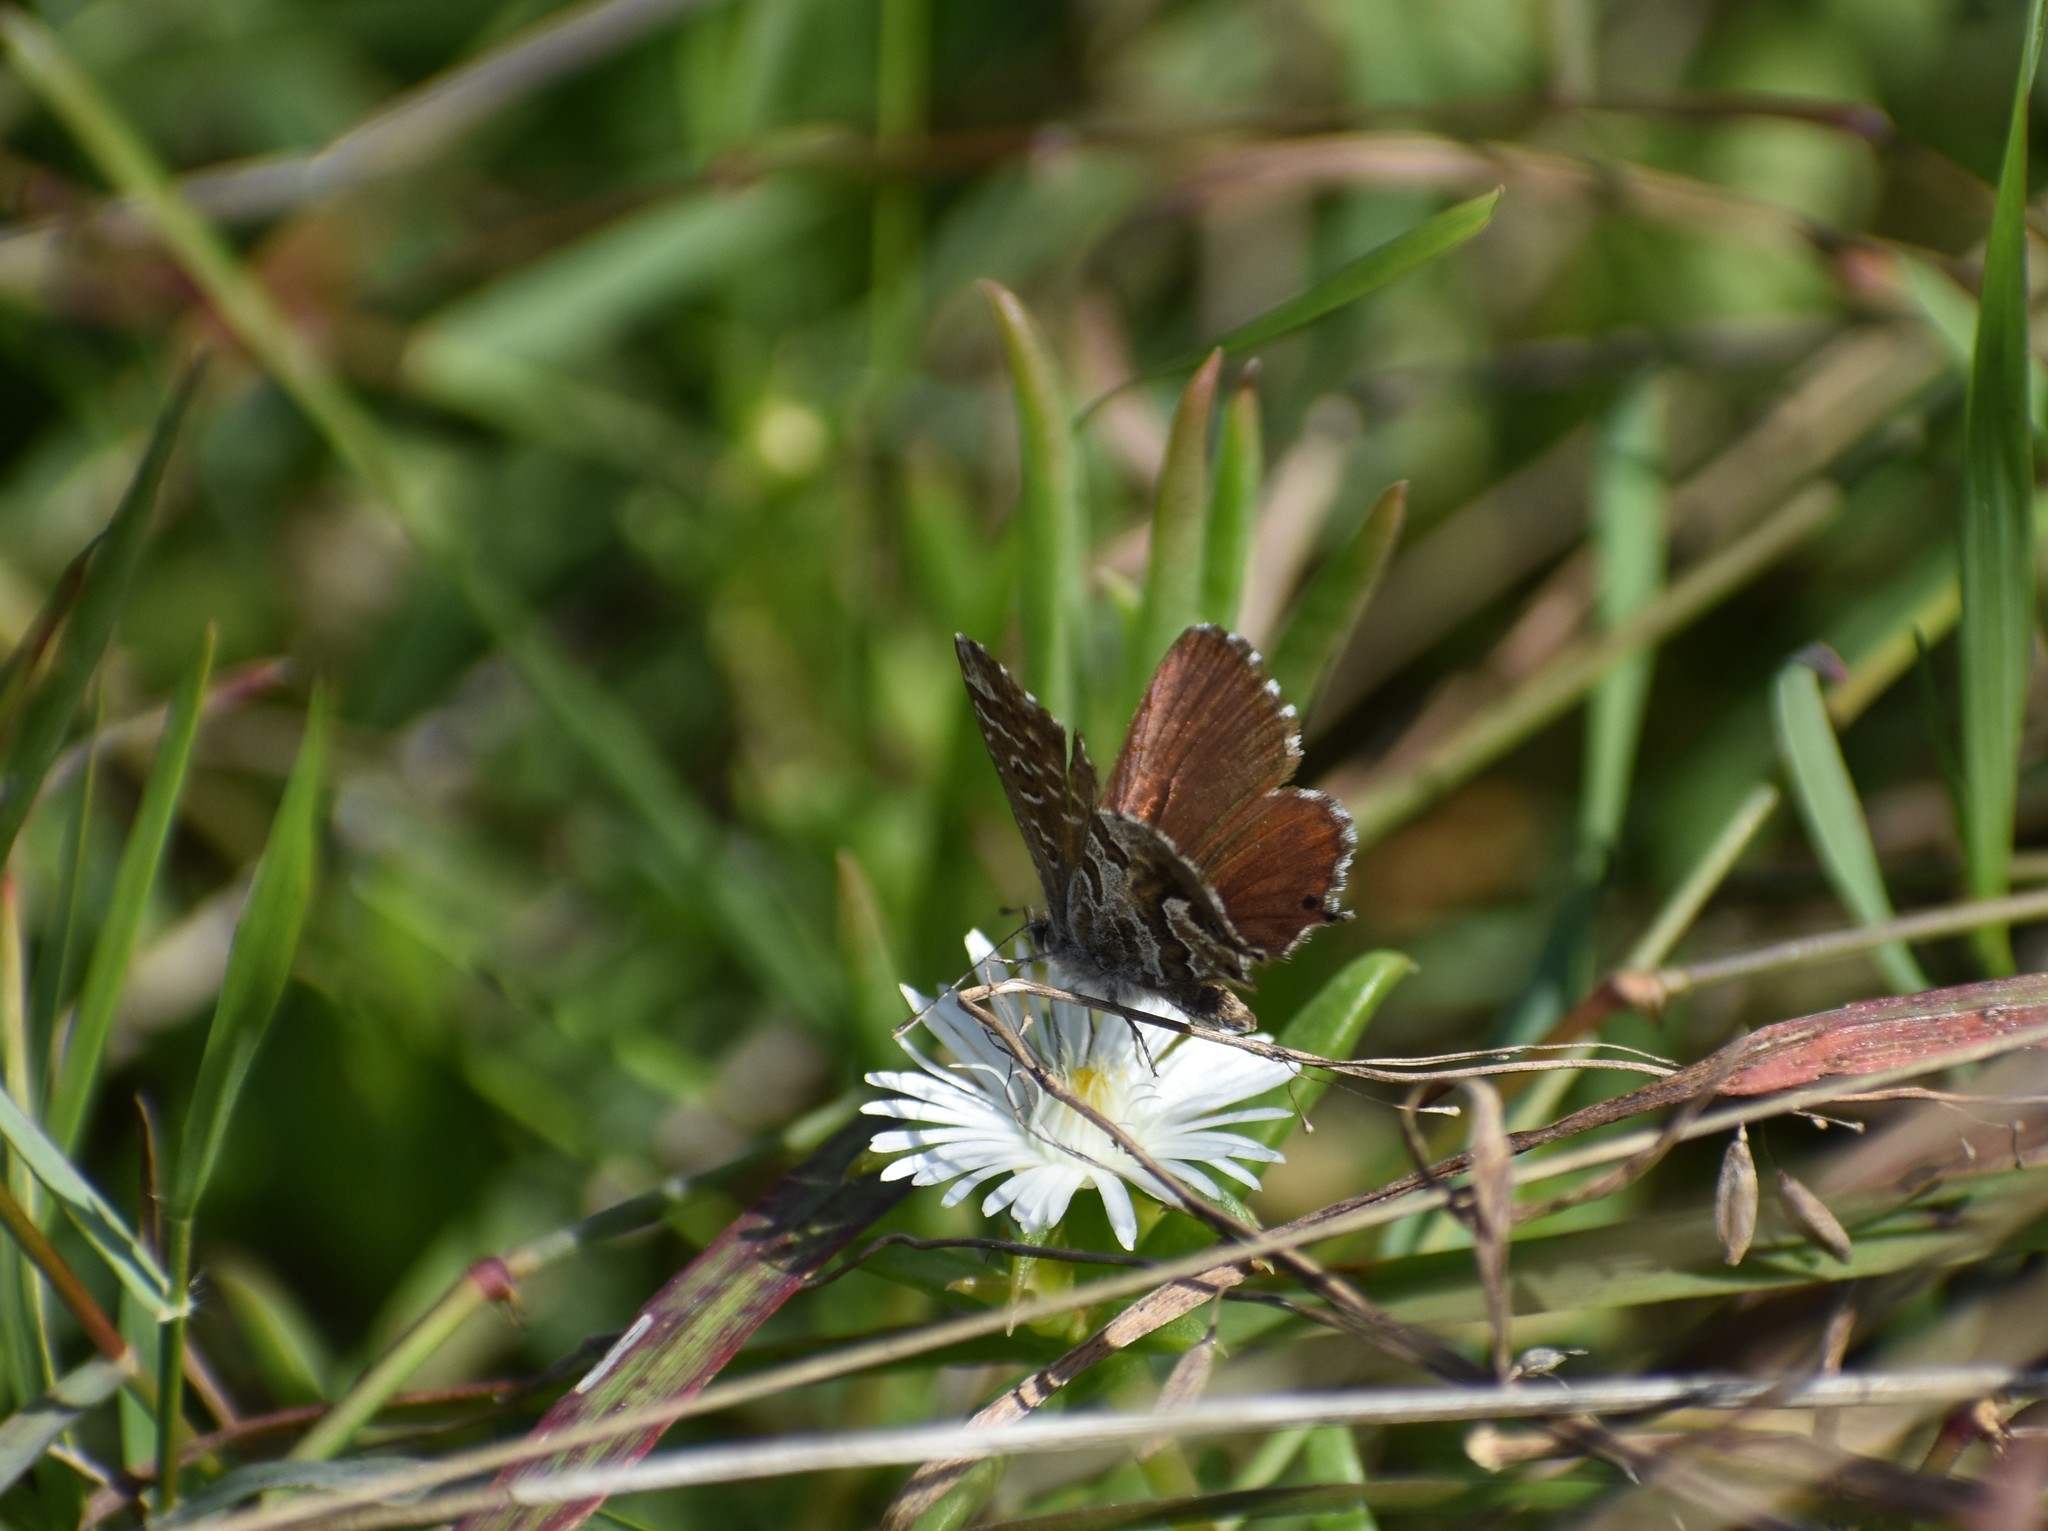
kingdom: Animalia
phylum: Arthropoda
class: Insecta
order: Lepidoptera
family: Lycaenidae
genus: Cacyreus
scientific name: Cacyreus fracta
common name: Water bronze
